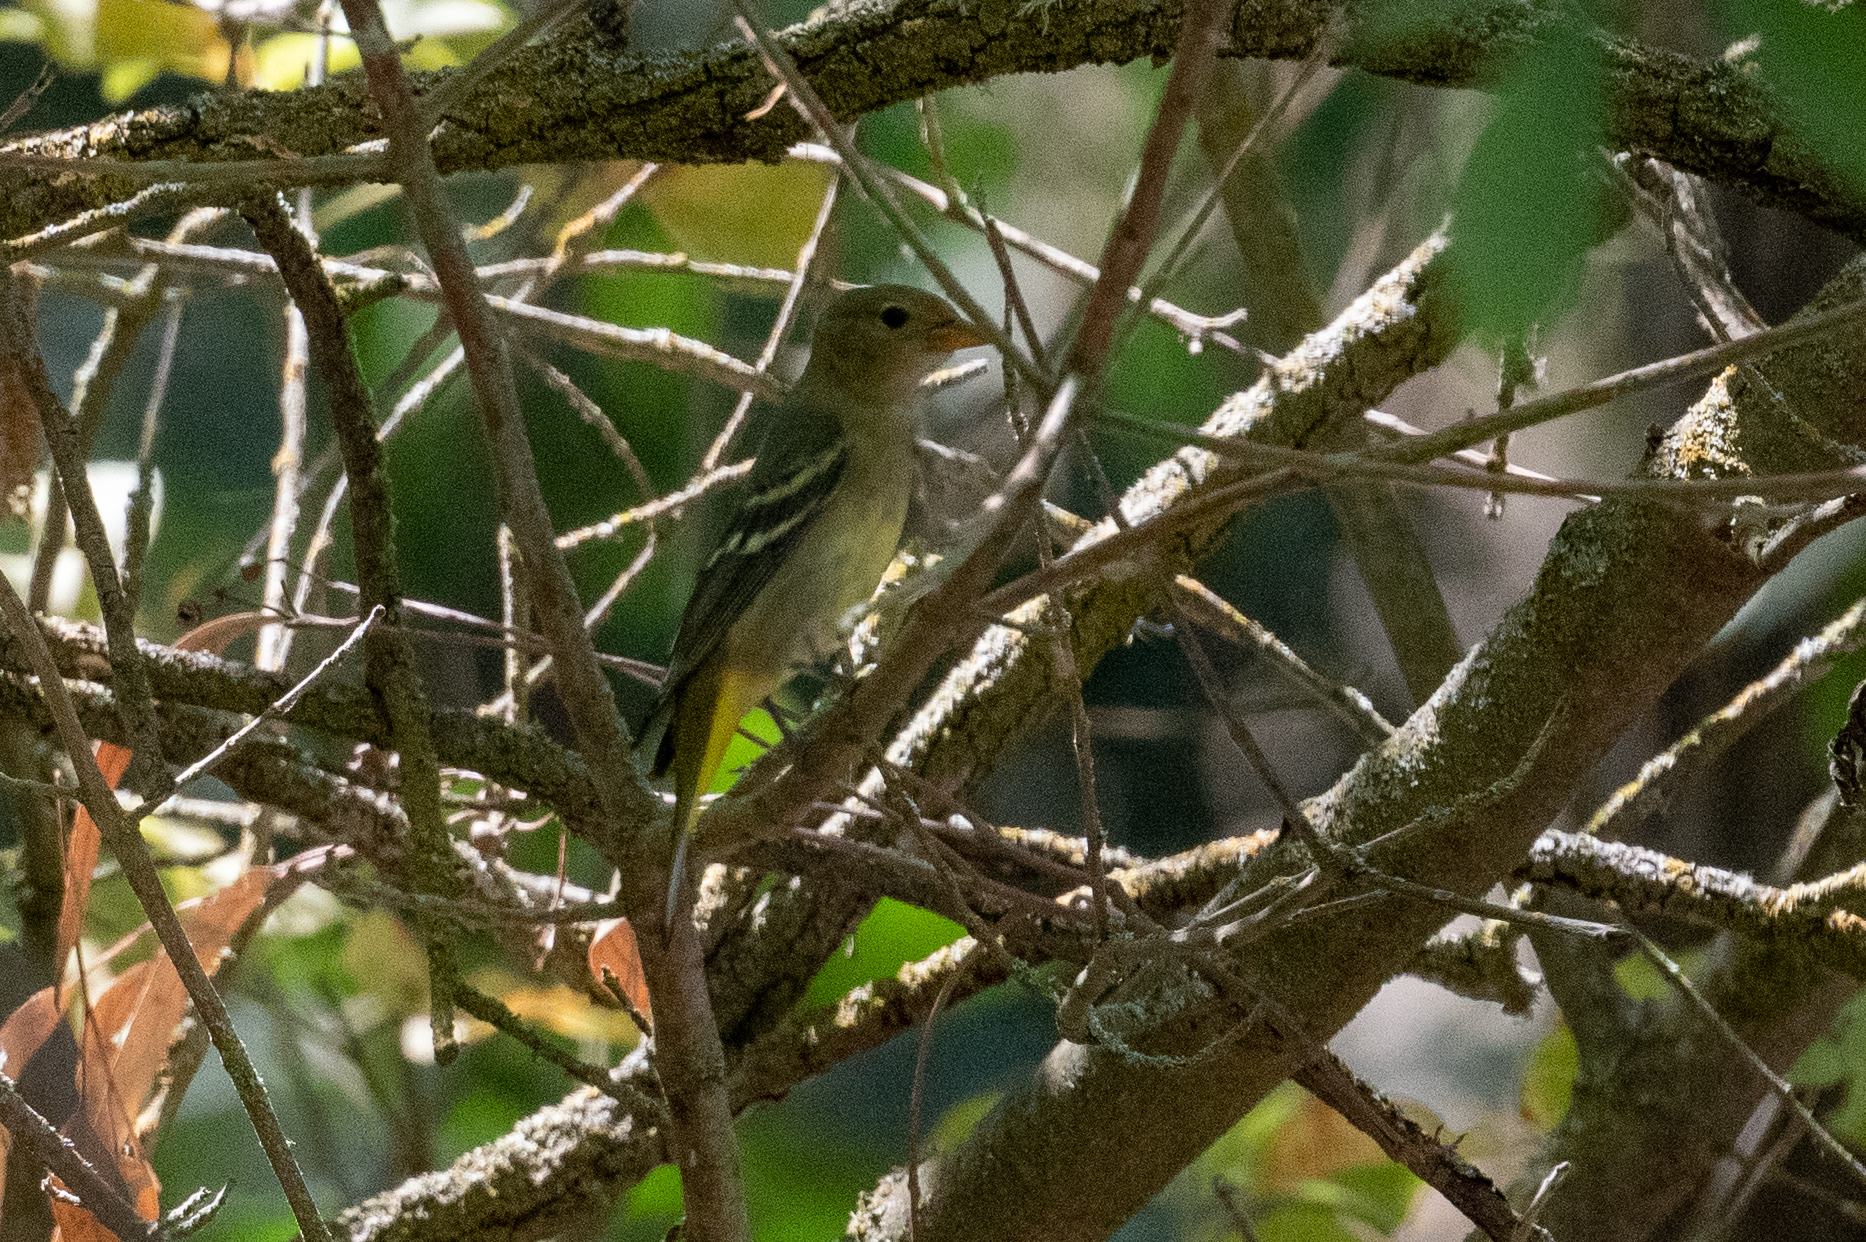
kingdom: Animalia
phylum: Chordata
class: Aves
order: Passeriformes
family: Cardinalidae
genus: Piranga
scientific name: Piranga ludoviciana
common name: Western tanager
